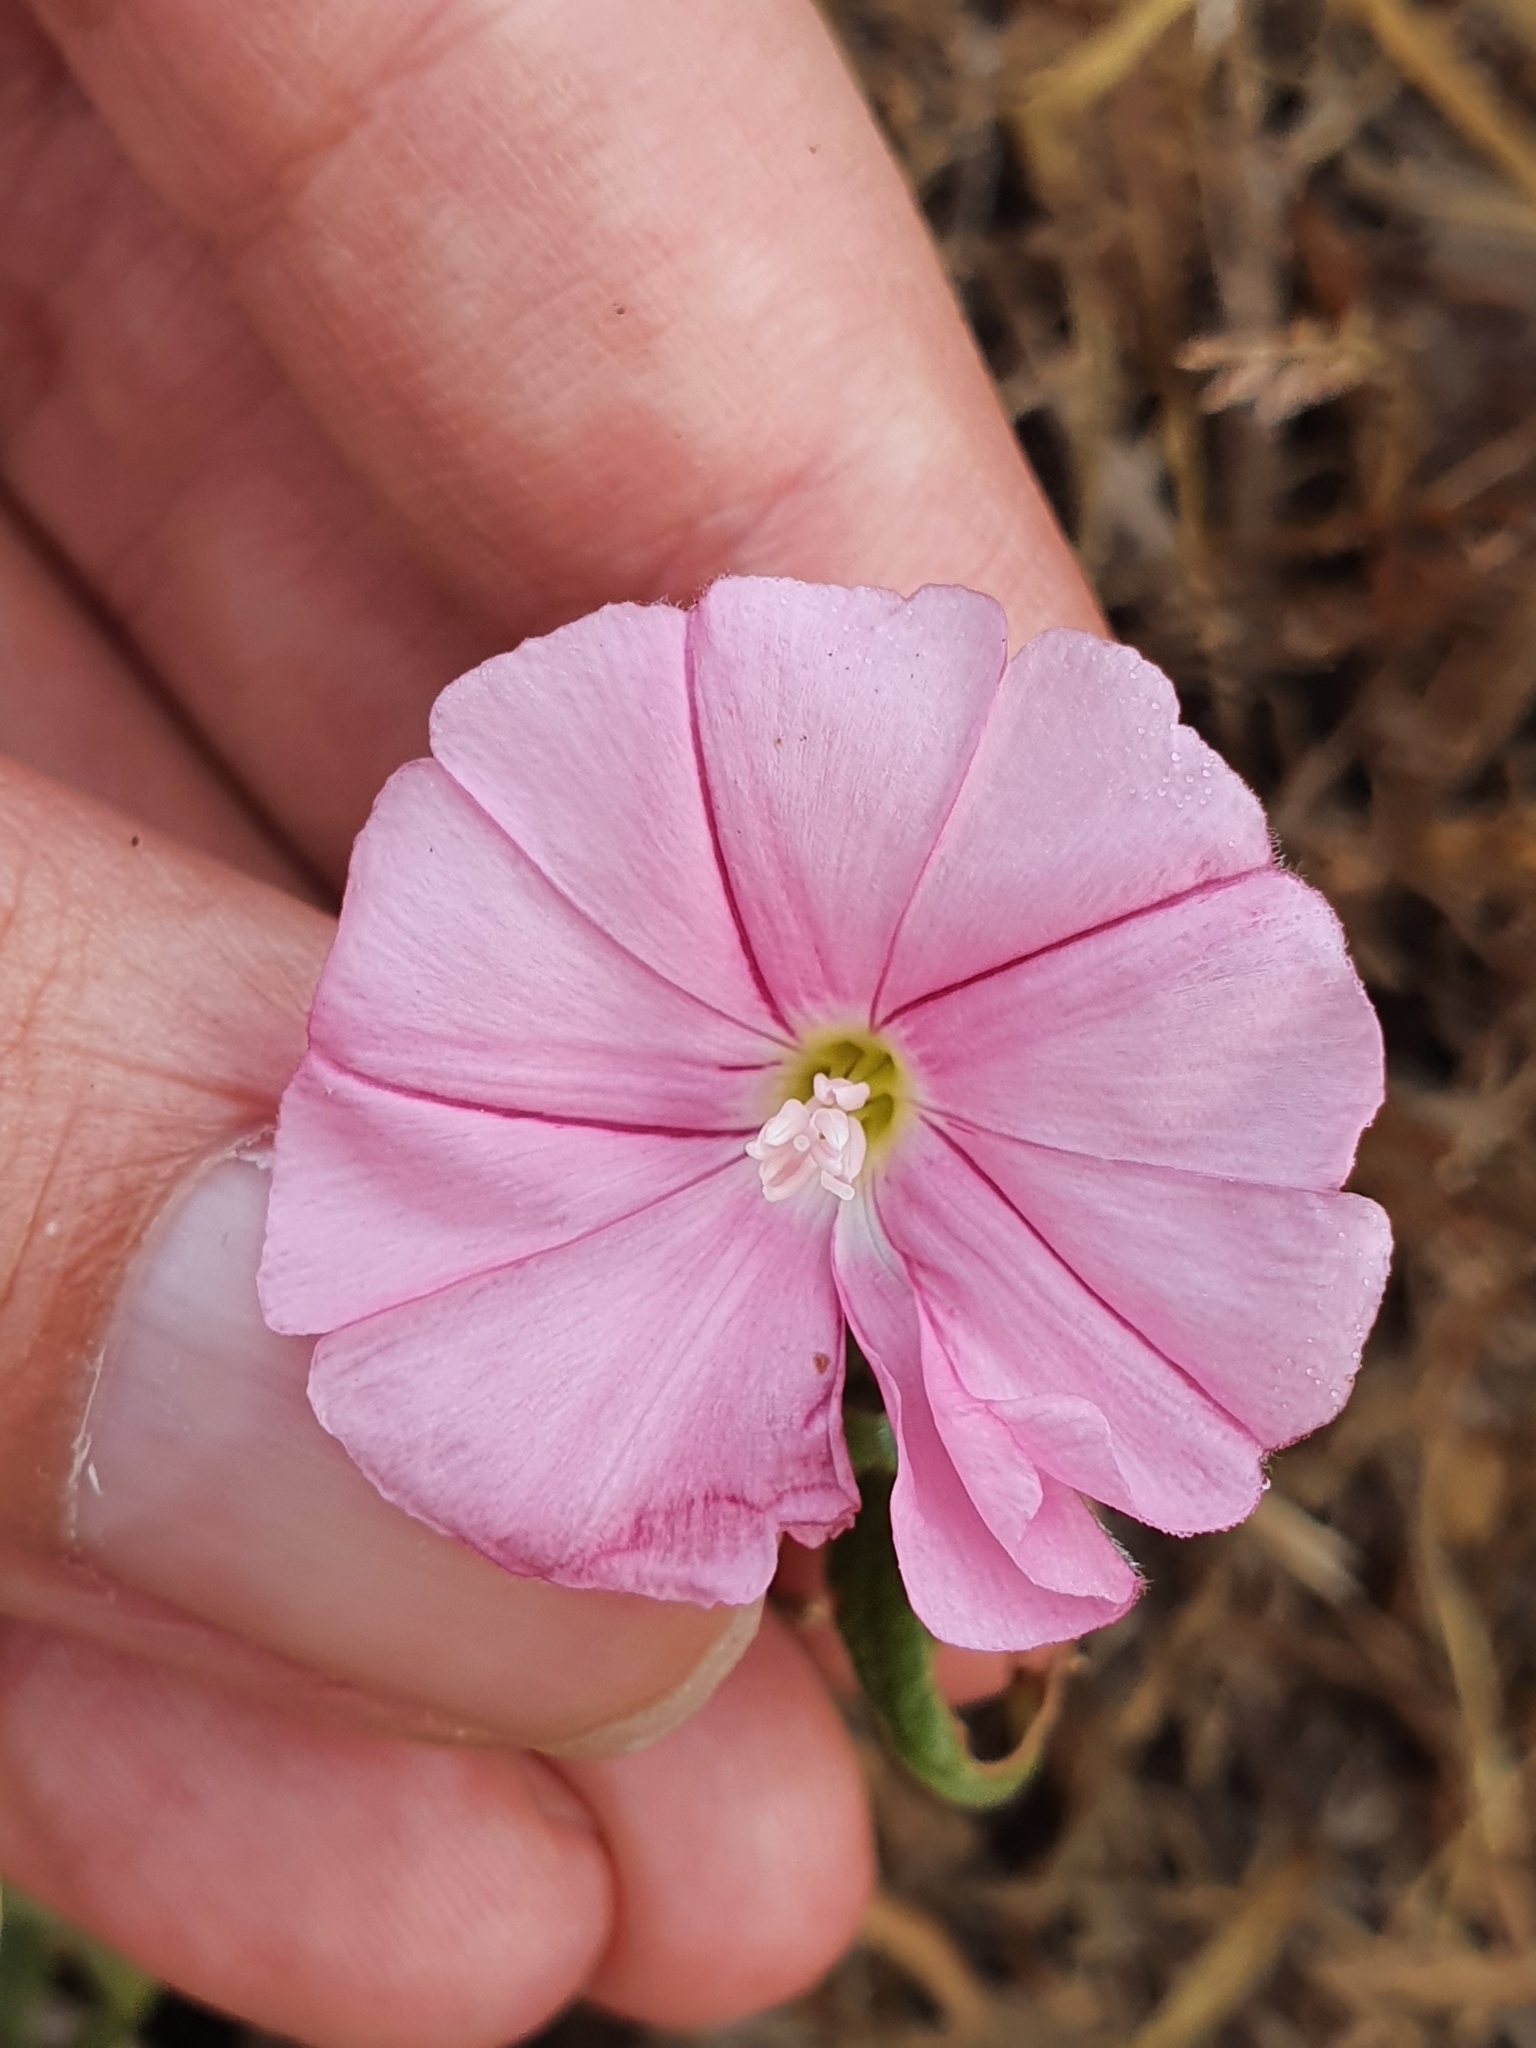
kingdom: Plantae
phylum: Tracheophyta
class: Magnoliopsida
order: Solanales
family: Convolvulaceae
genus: Convolvulus
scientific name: Convolvulus cantabrica
